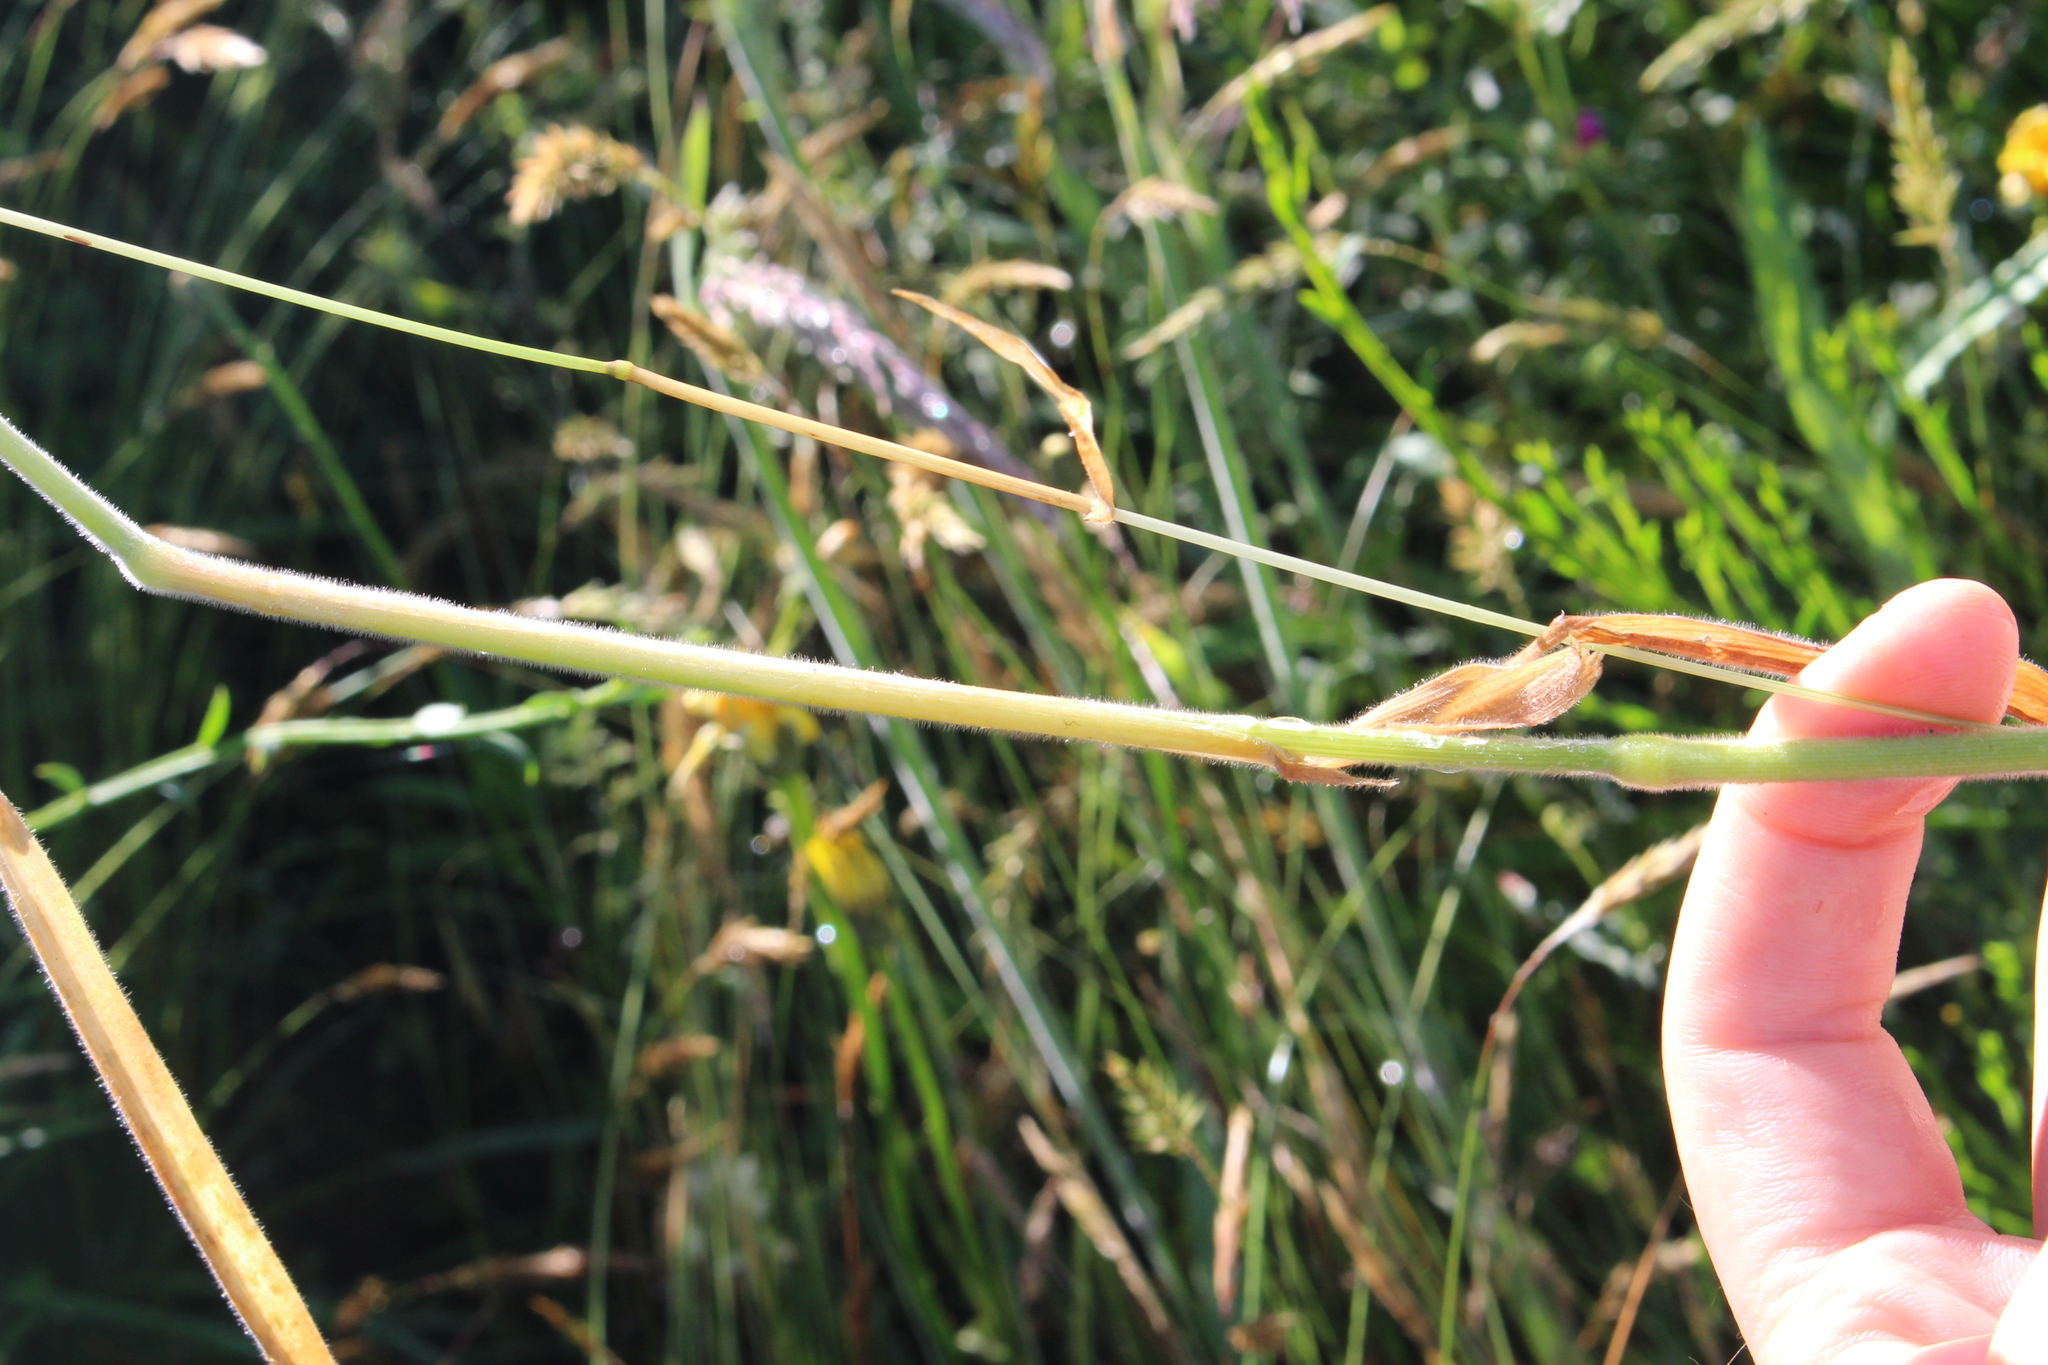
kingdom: Plantae
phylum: Tracheophyta
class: Liliopsida
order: Poales
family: Poaceae
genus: Holcus
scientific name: Holcus lanatus
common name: Yorkshire-fog
